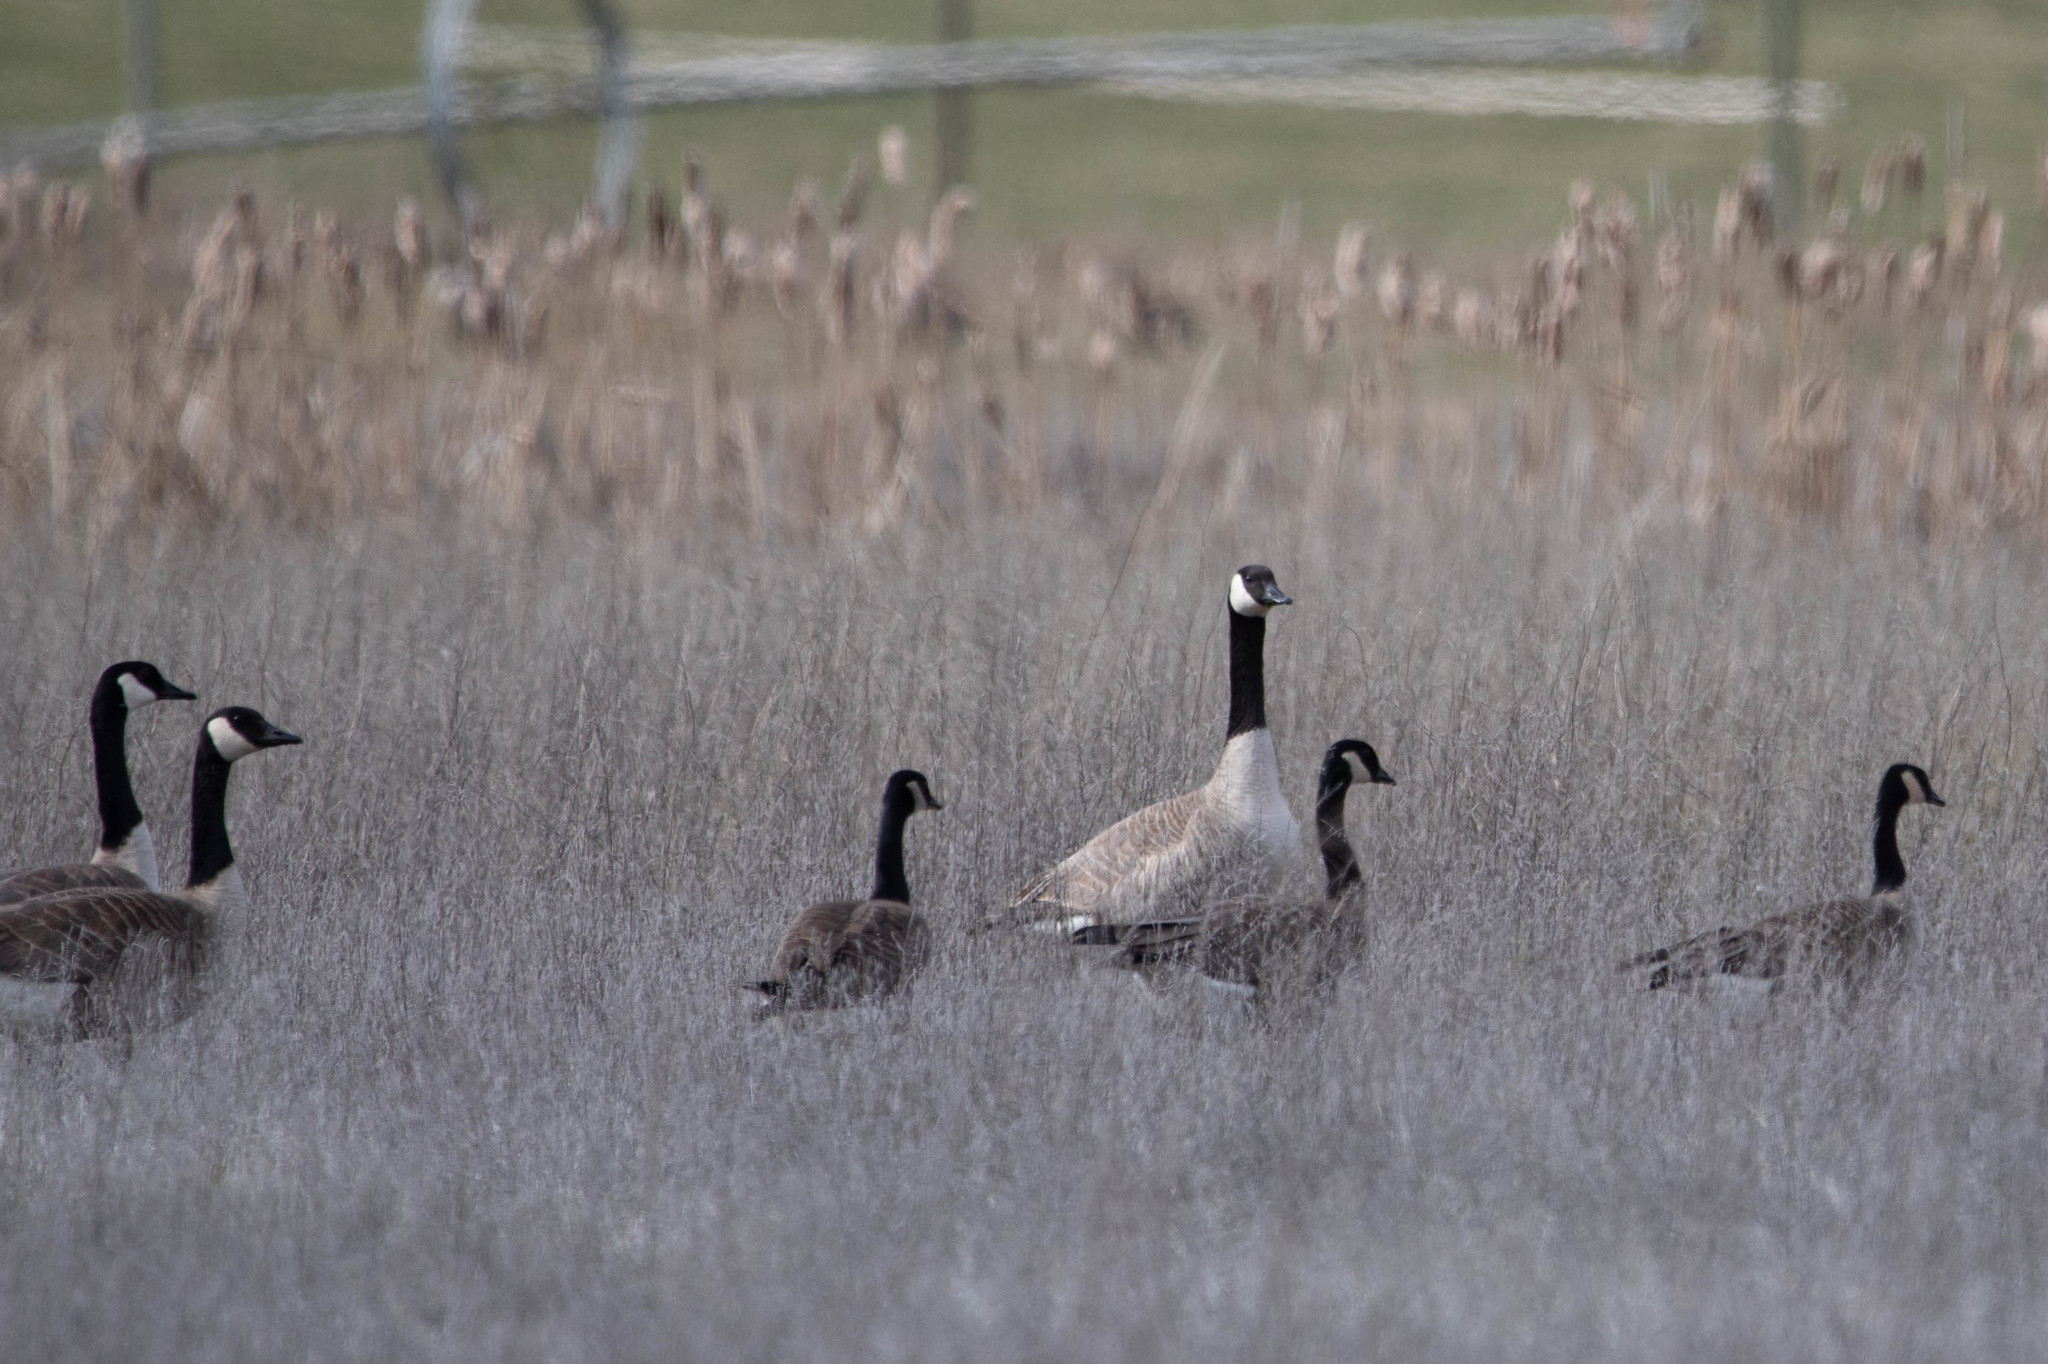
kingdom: Animalia
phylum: Chordata
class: Aves
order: Anseriformes
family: Anatidae
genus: Branta
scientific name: Branta hutchinsii
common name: Cackling goose
